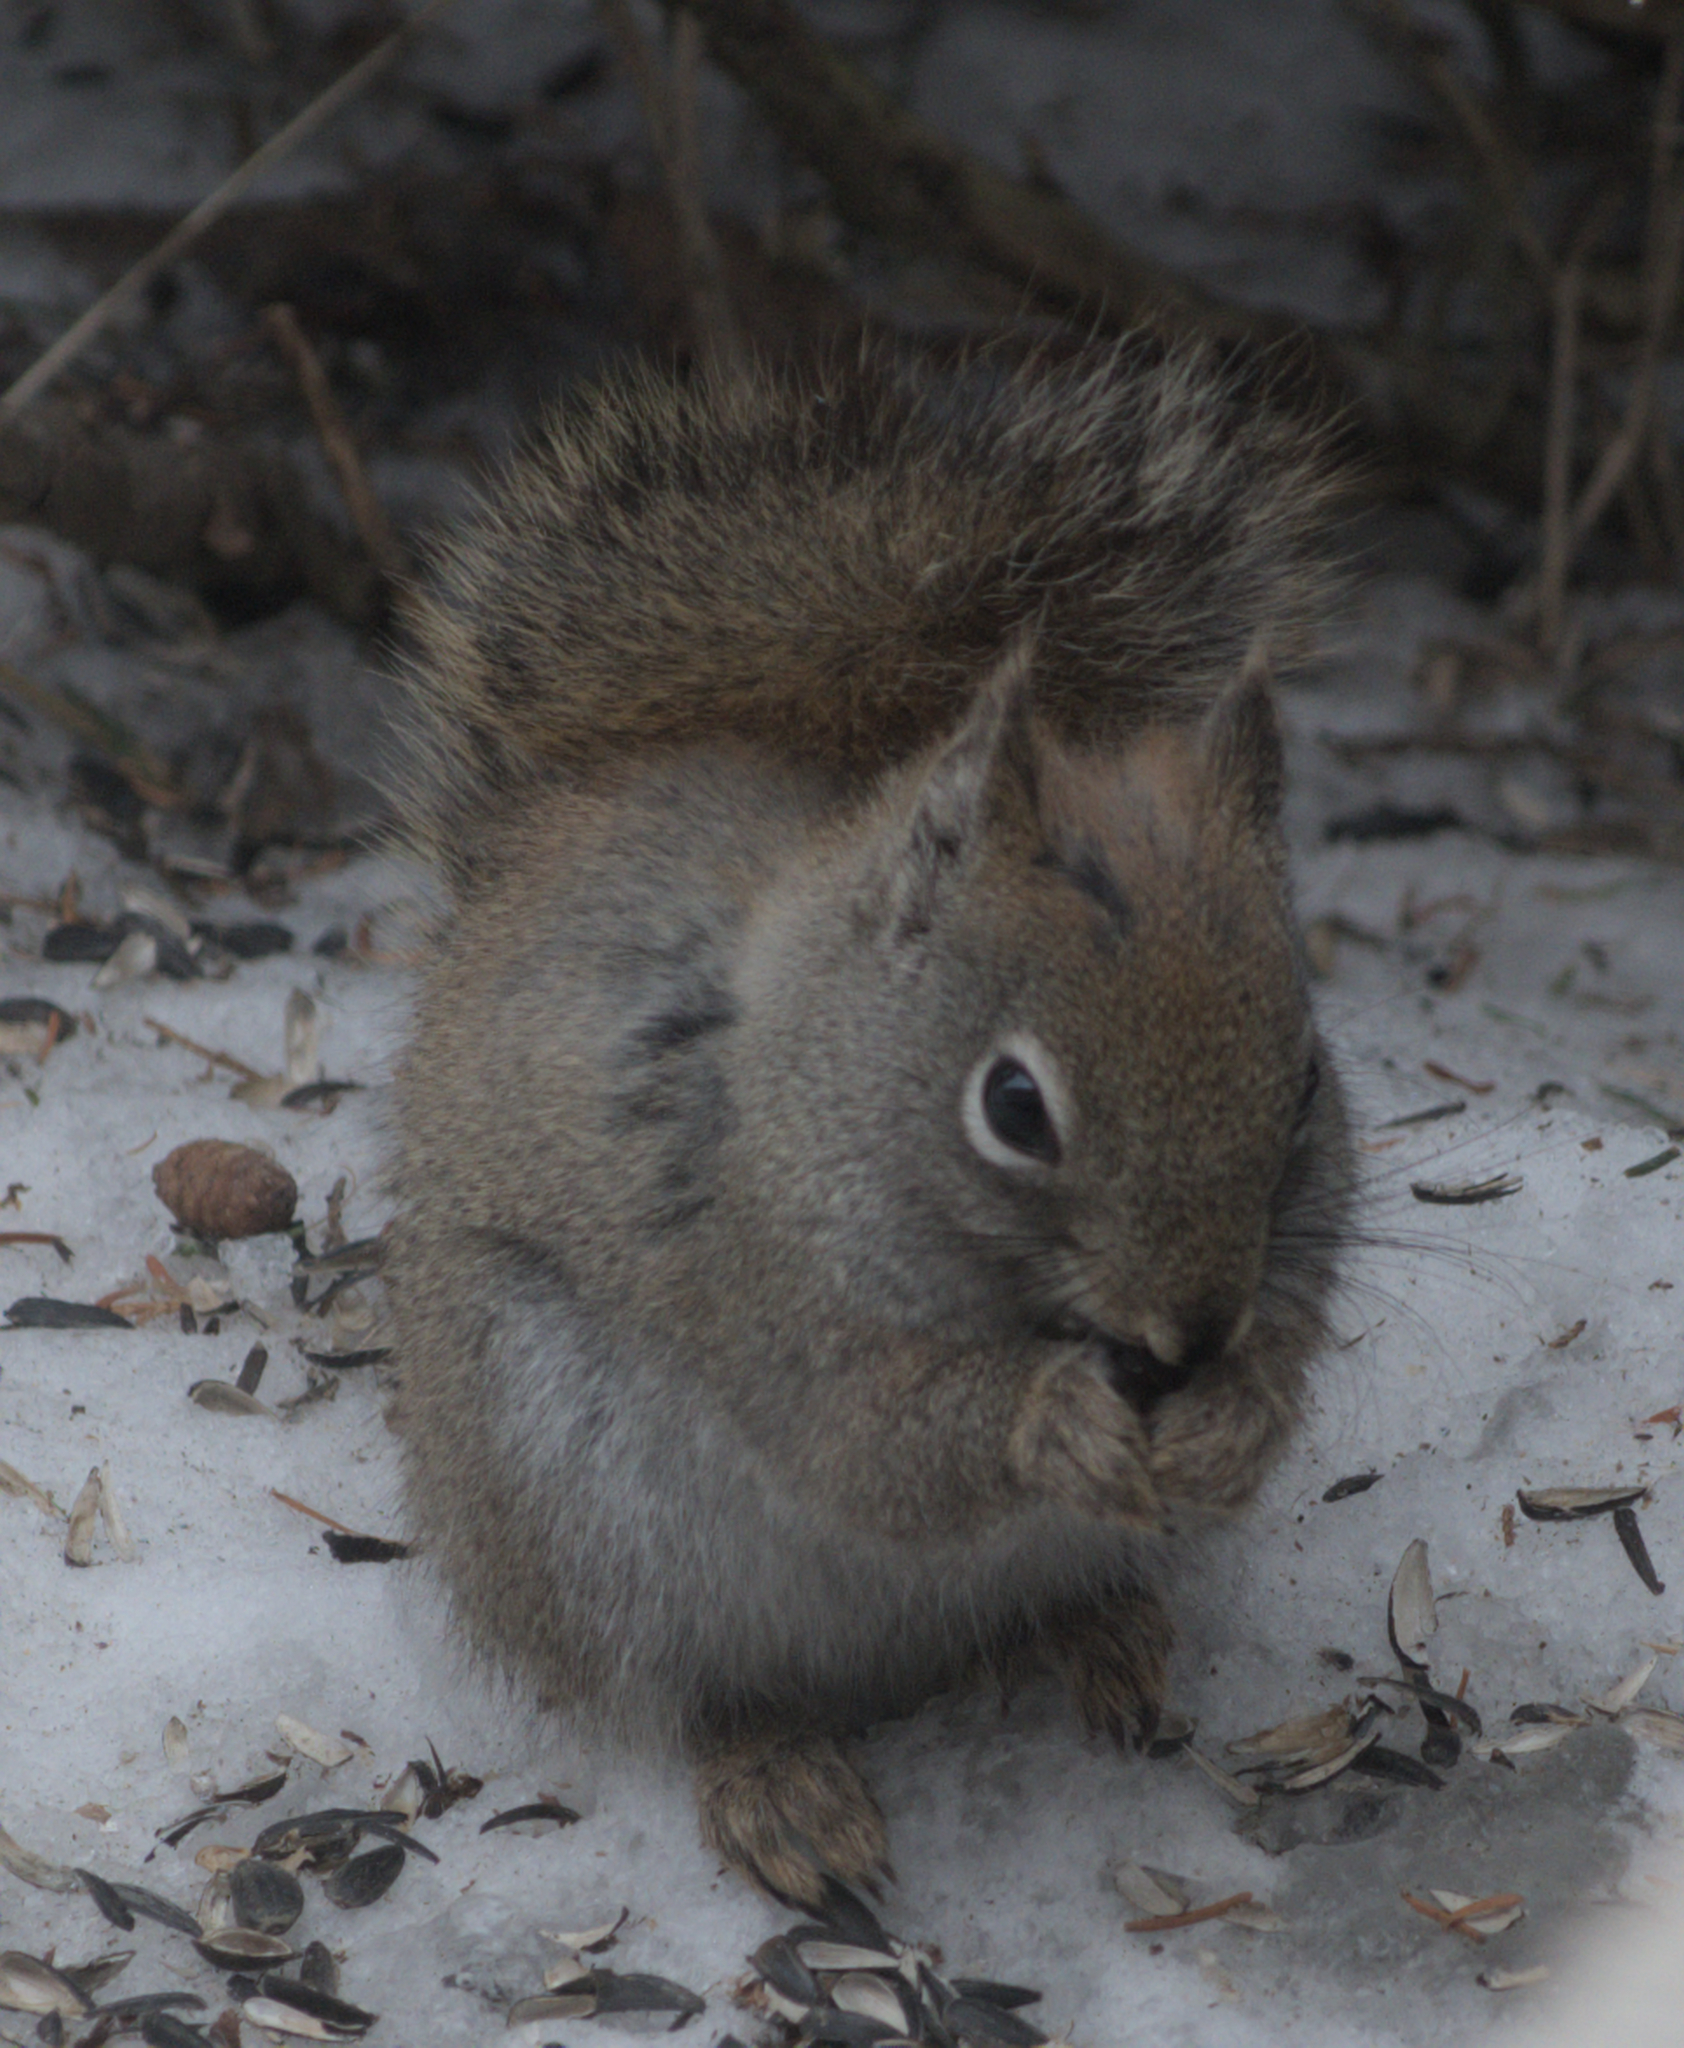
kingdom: Animalia
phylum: Chordata
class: Mammalia
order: Rodentia
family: Sciuridae
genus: Tamiasciurus
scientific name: Tamiasciurus hudsonicus
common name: Red squirrel
